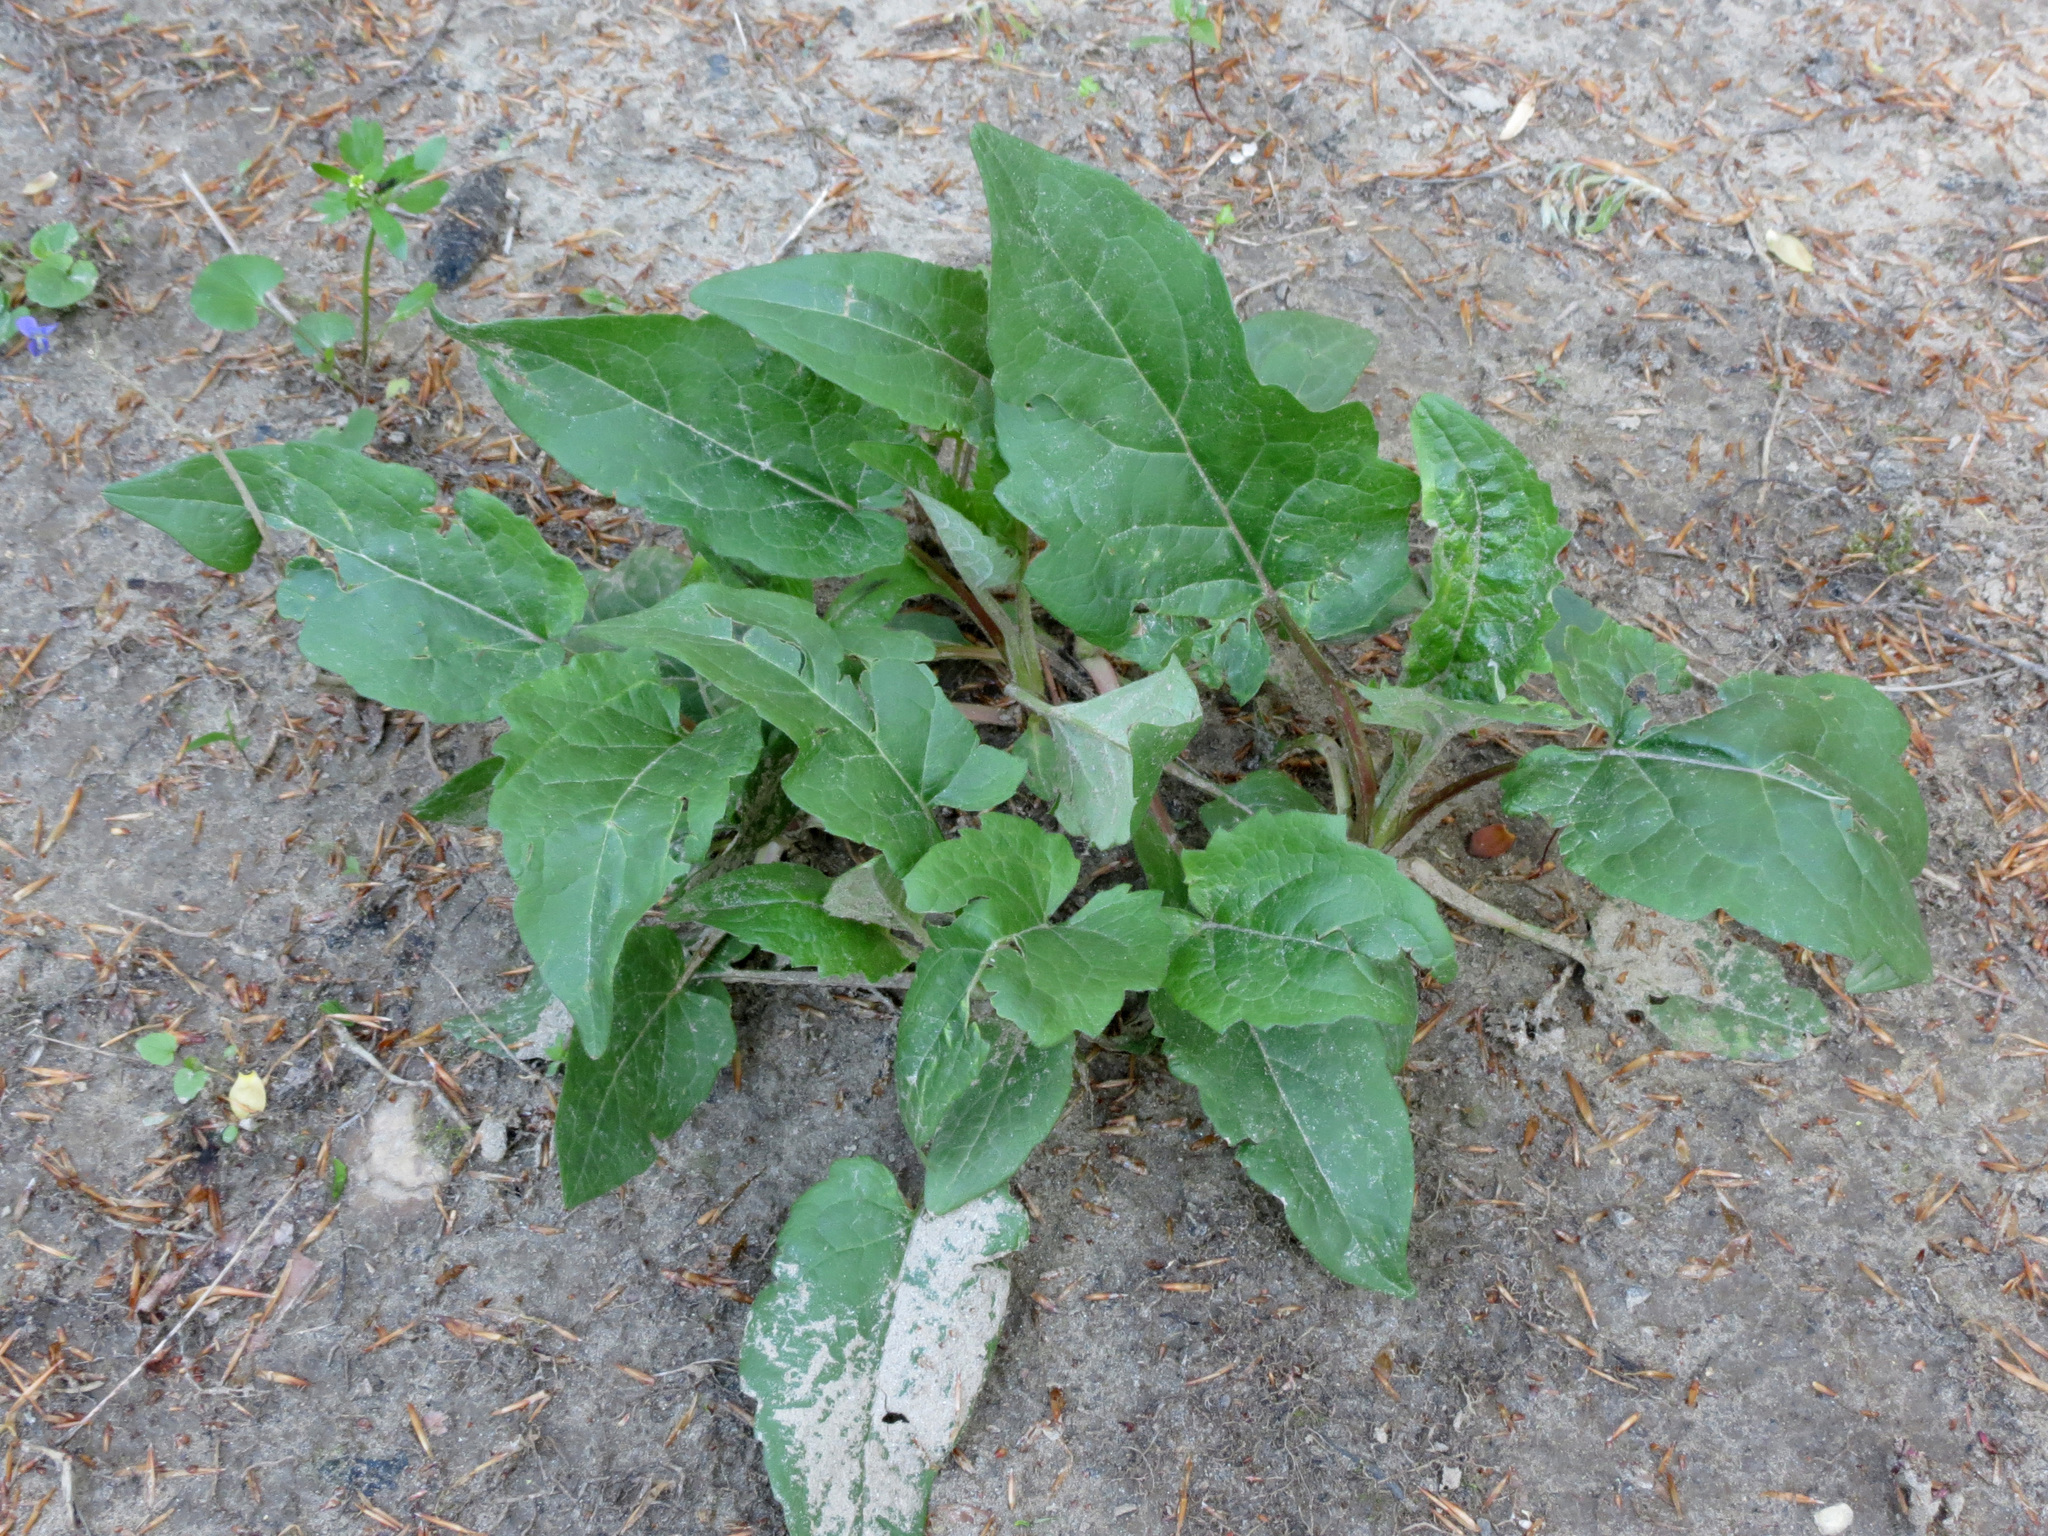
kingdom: Plantae
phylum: Tracheophyta
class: Magnoliopsida
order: Asterales
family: Asteraceae
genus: Silphium
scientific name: Silphium perfoliatum
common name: Cup-plant
